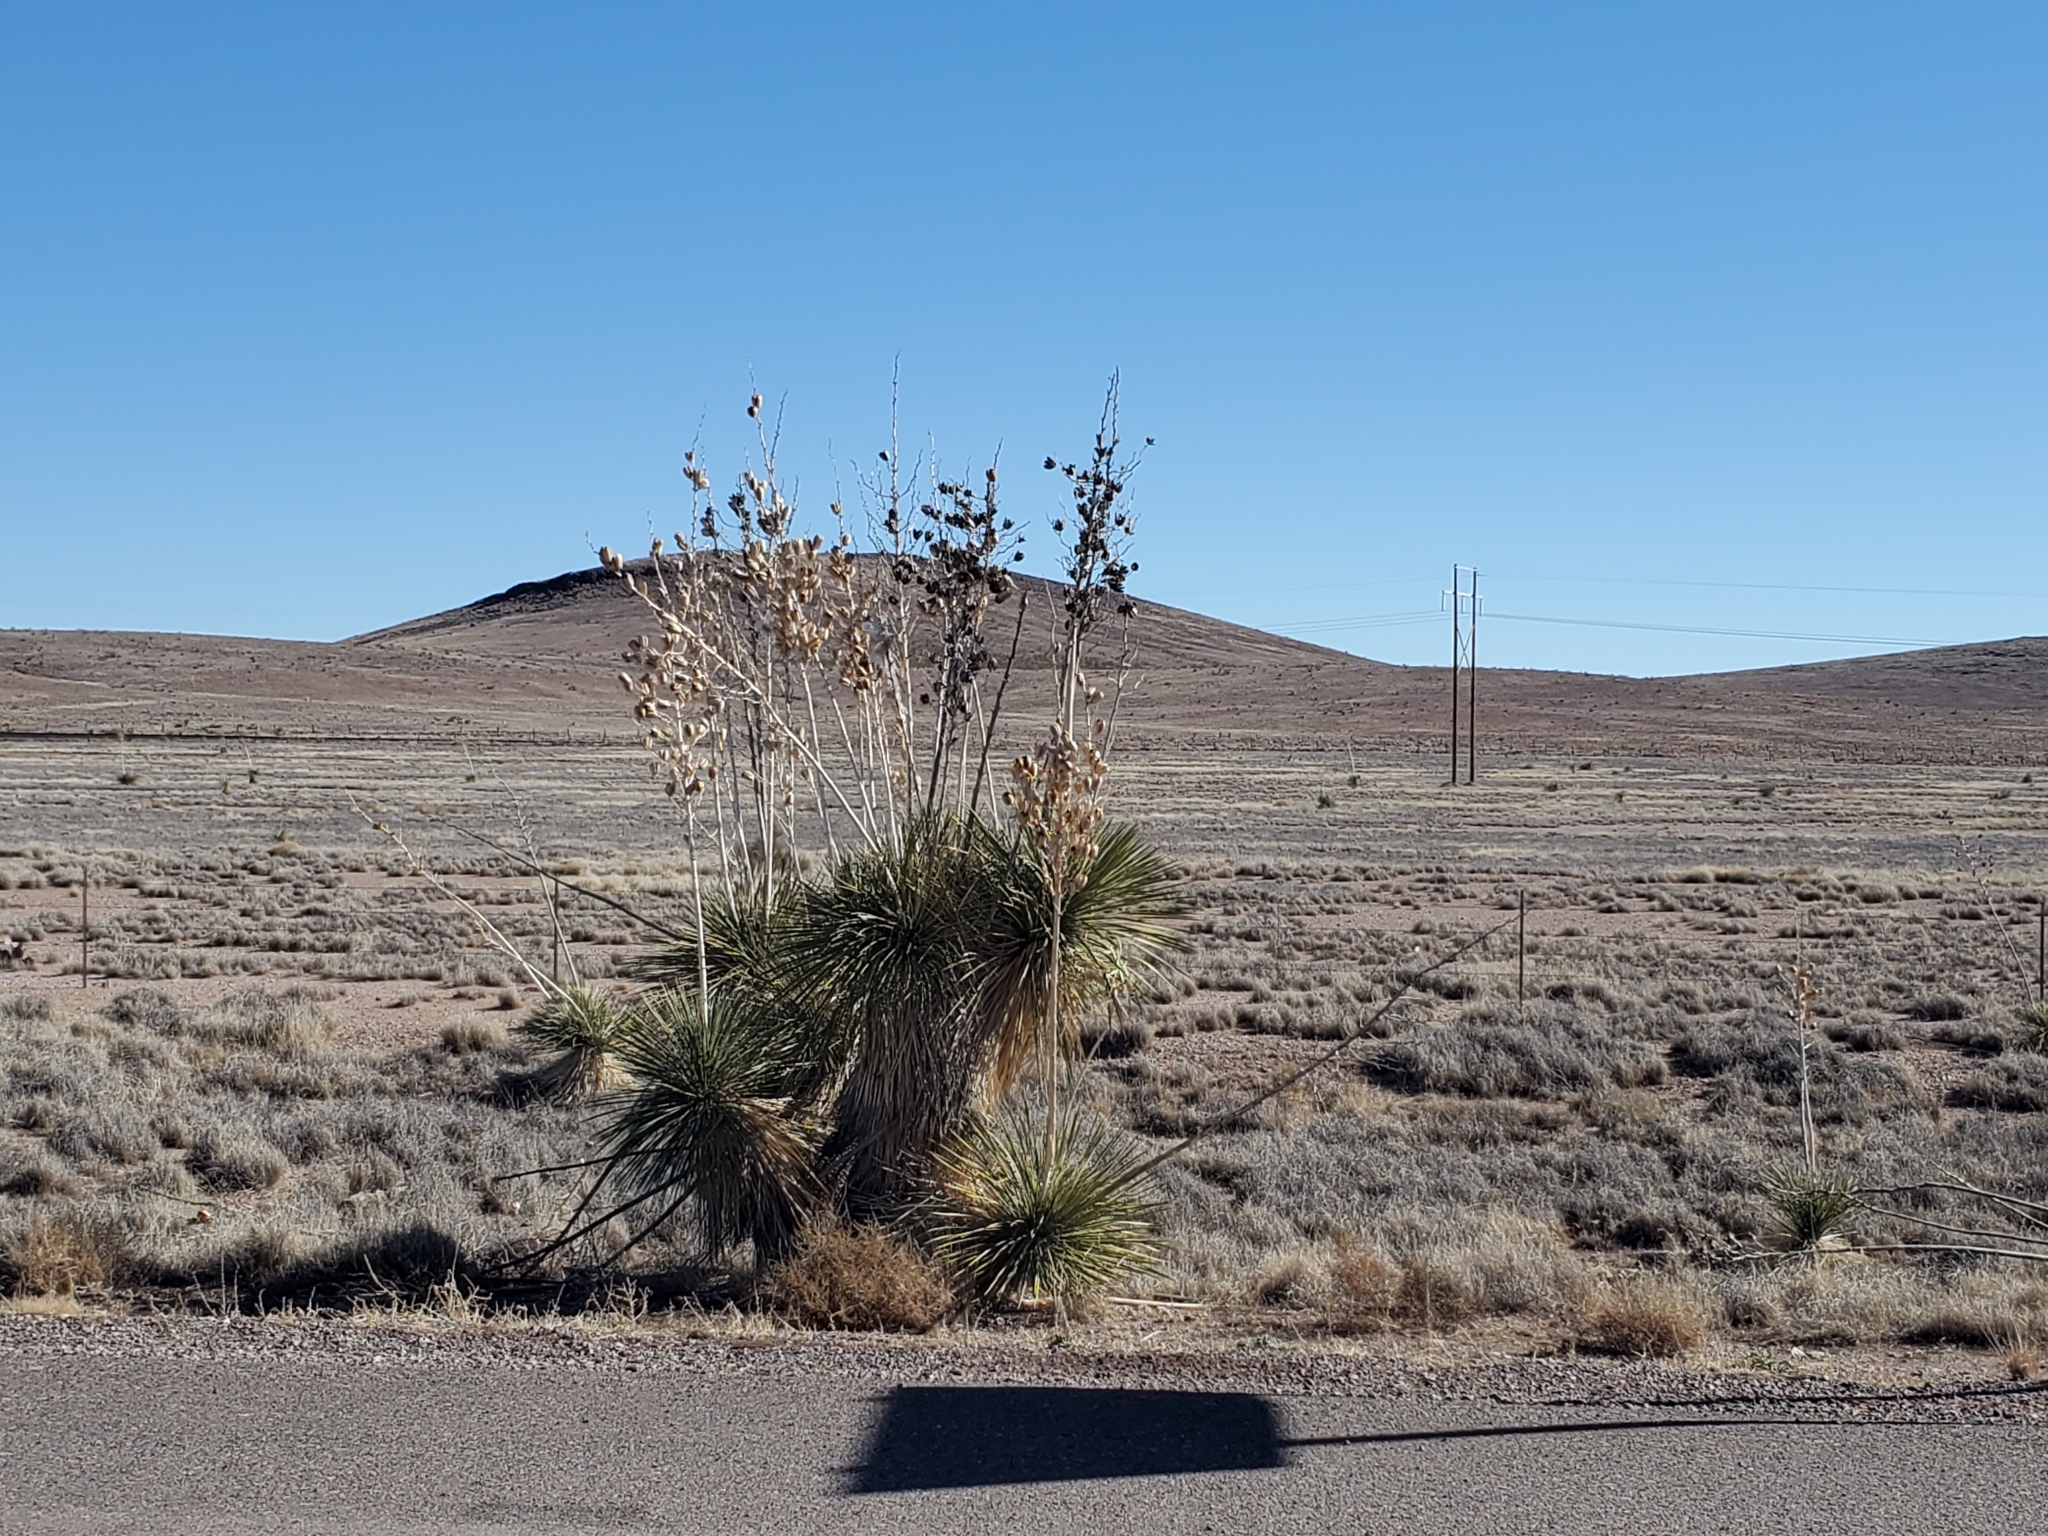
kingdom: Plantae
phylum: Tracheophyta
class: Liliopsida
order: Asparagales
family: Asparagaceae
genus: Yucca
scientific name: Yucca elata
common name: Palmella
